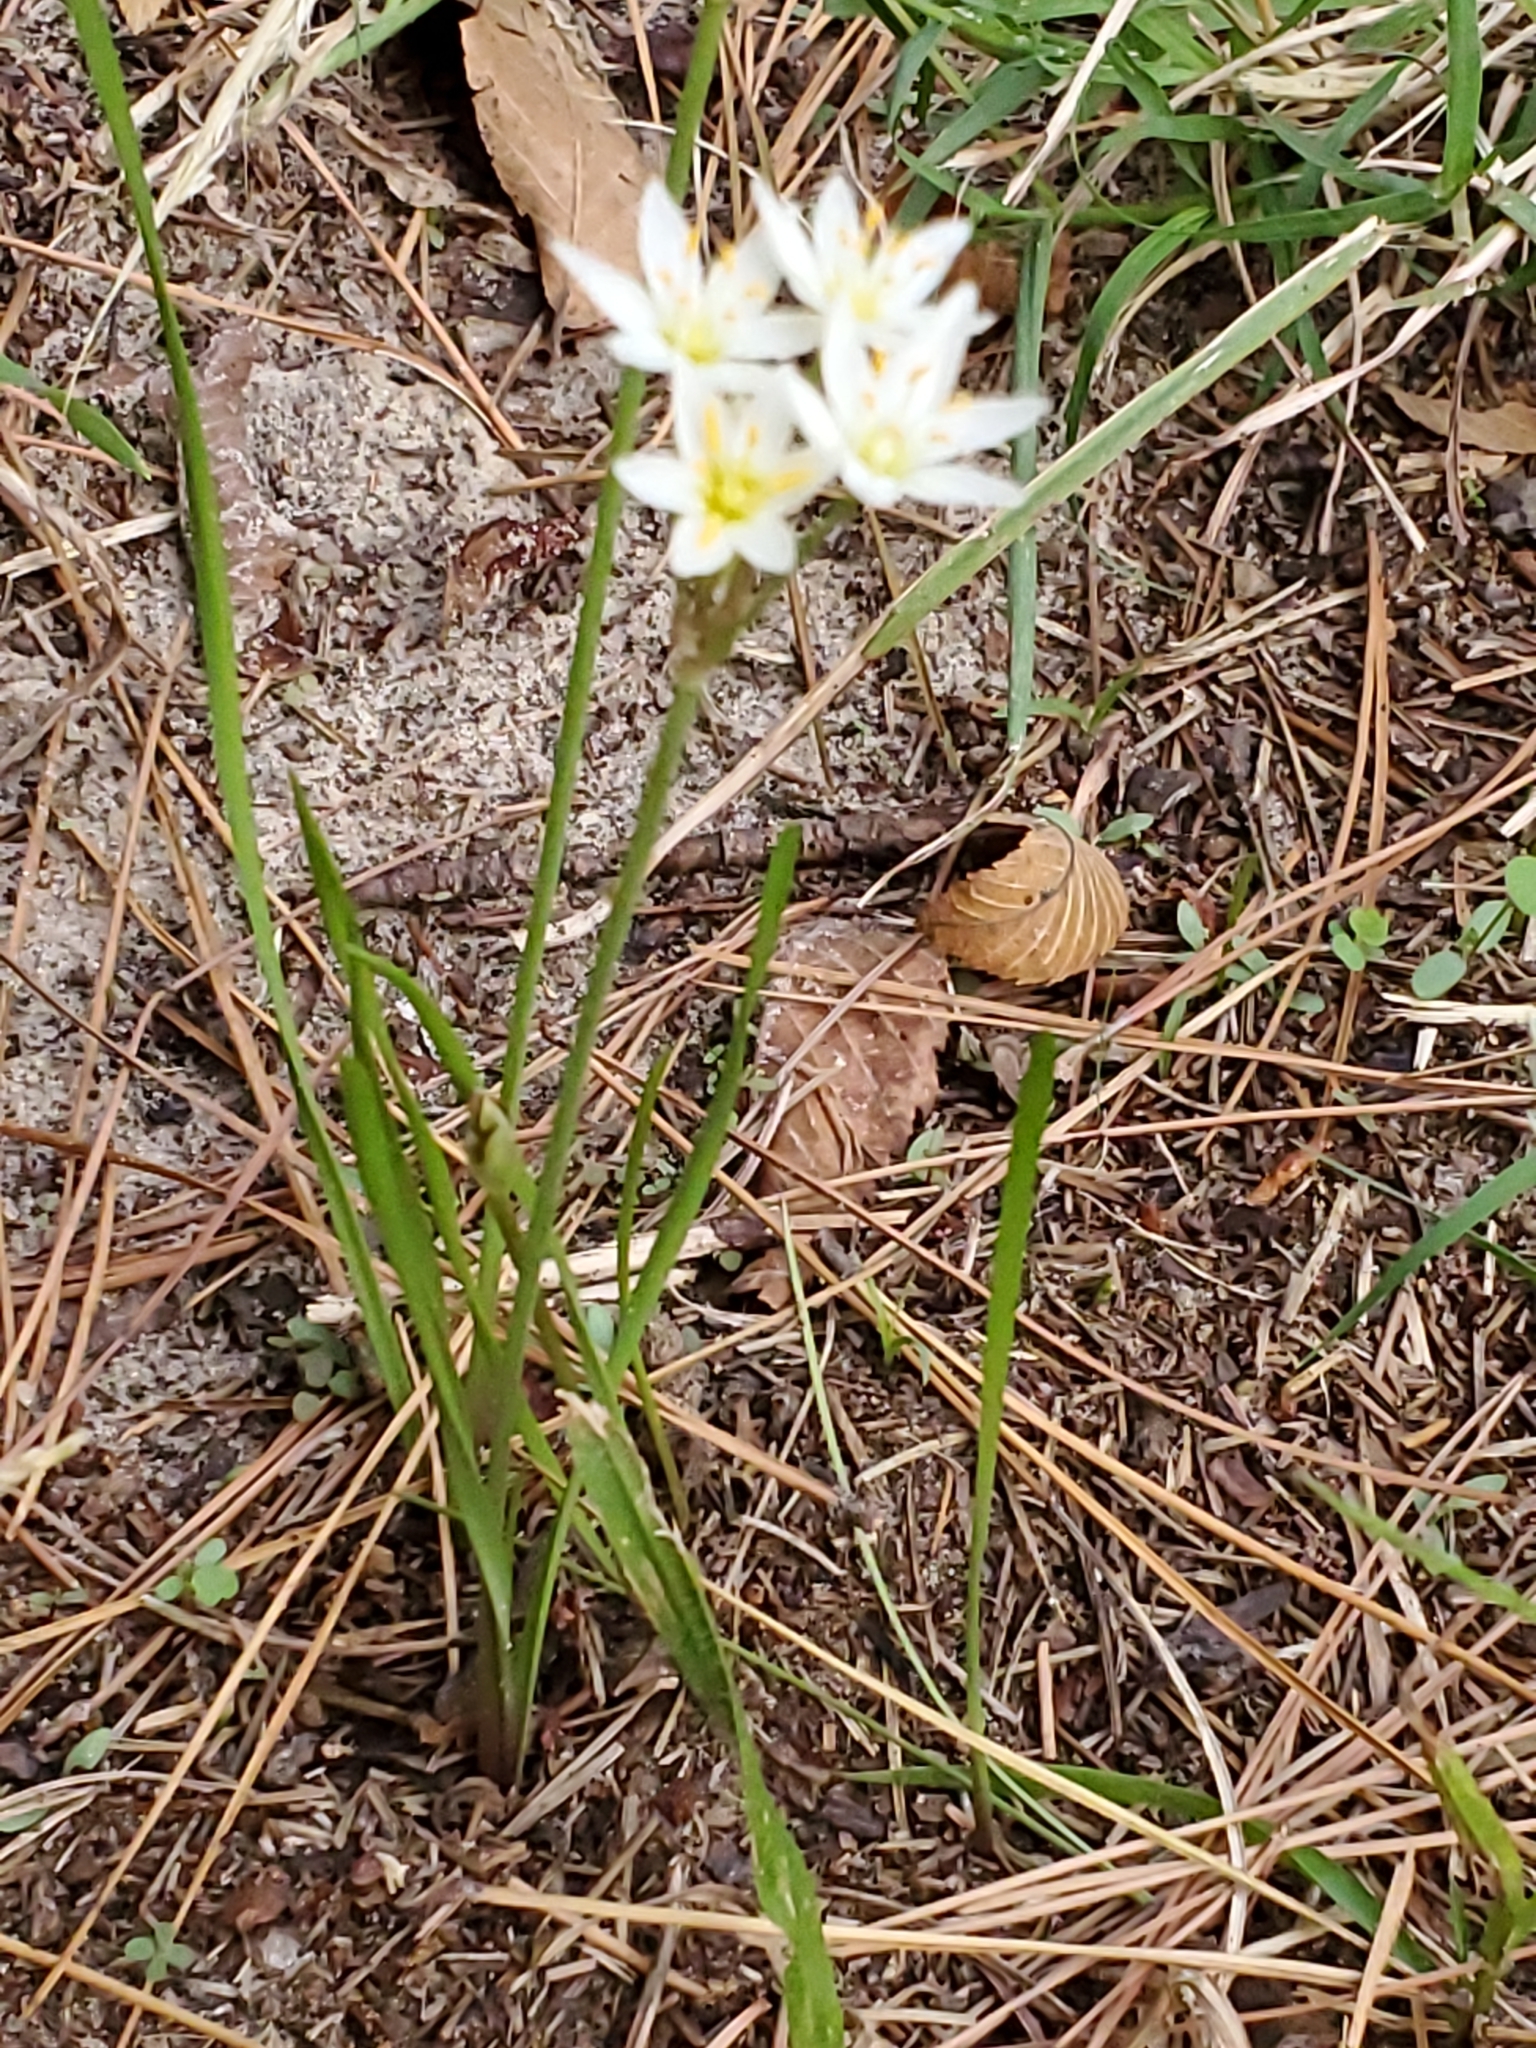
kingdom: Plantae
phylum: Tracheophyta
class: Liliopsida
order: Asparagales
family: Amaryllidaceae
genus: Nothoscordum
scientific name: Nothoscordum bivalve
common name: Crow-poison
